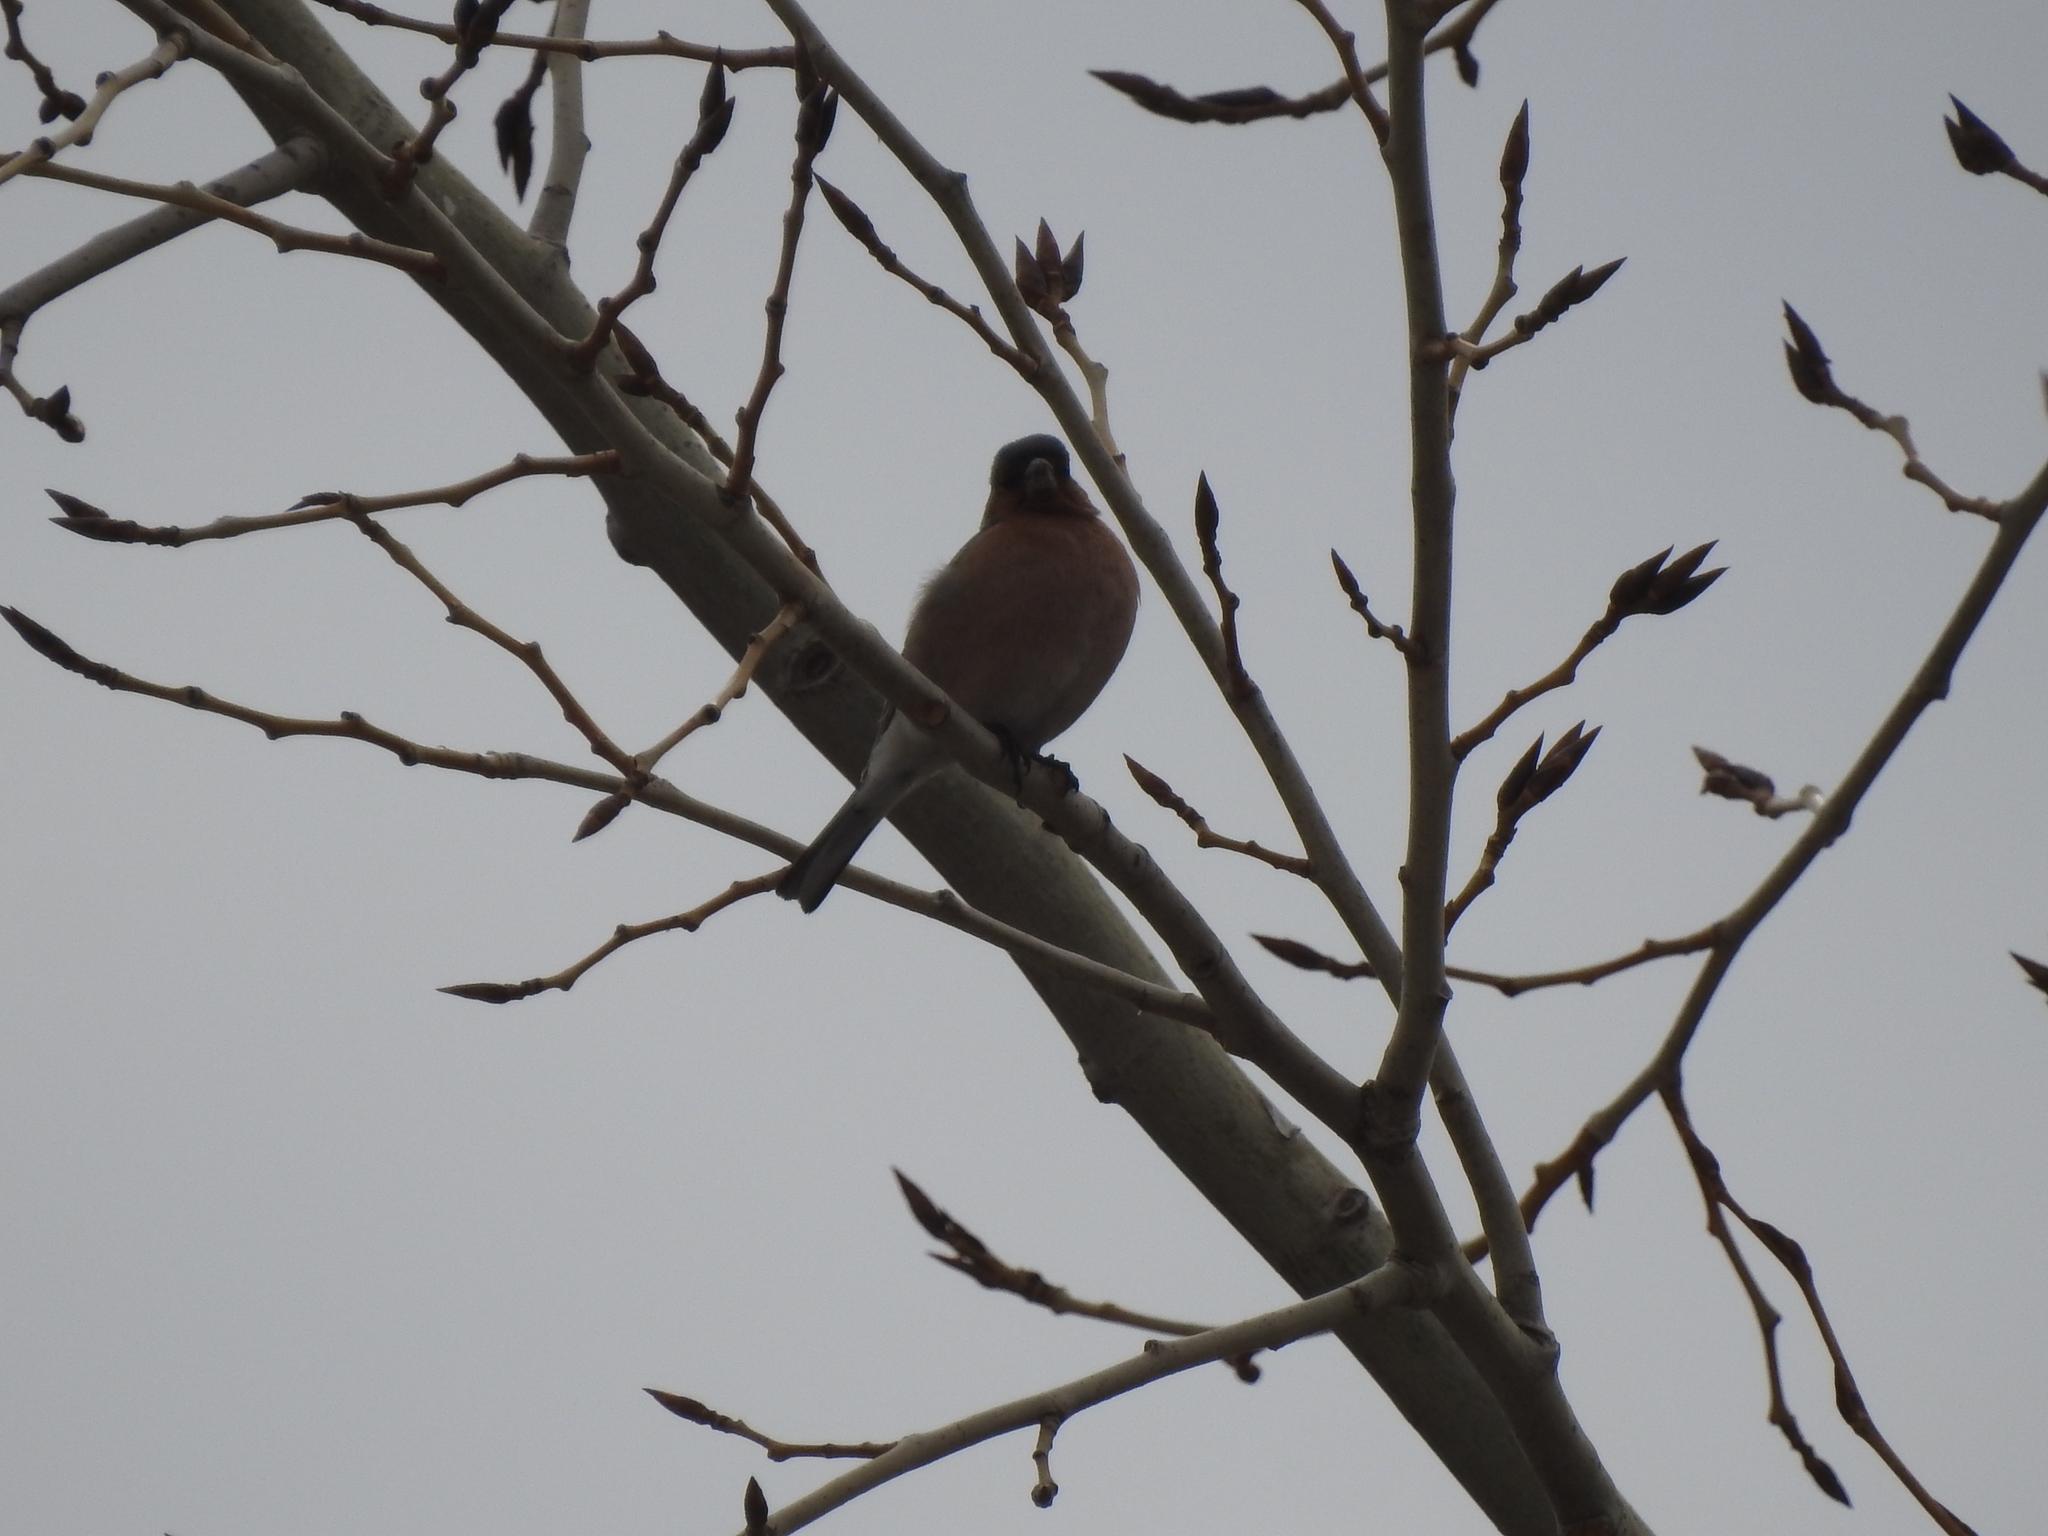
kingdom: Animalia
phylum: Chordata
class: Aves
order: Passeriformes
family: Fringillidae
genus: Fringilla
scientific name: Fringilla coelebs
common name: Common chaffinch
